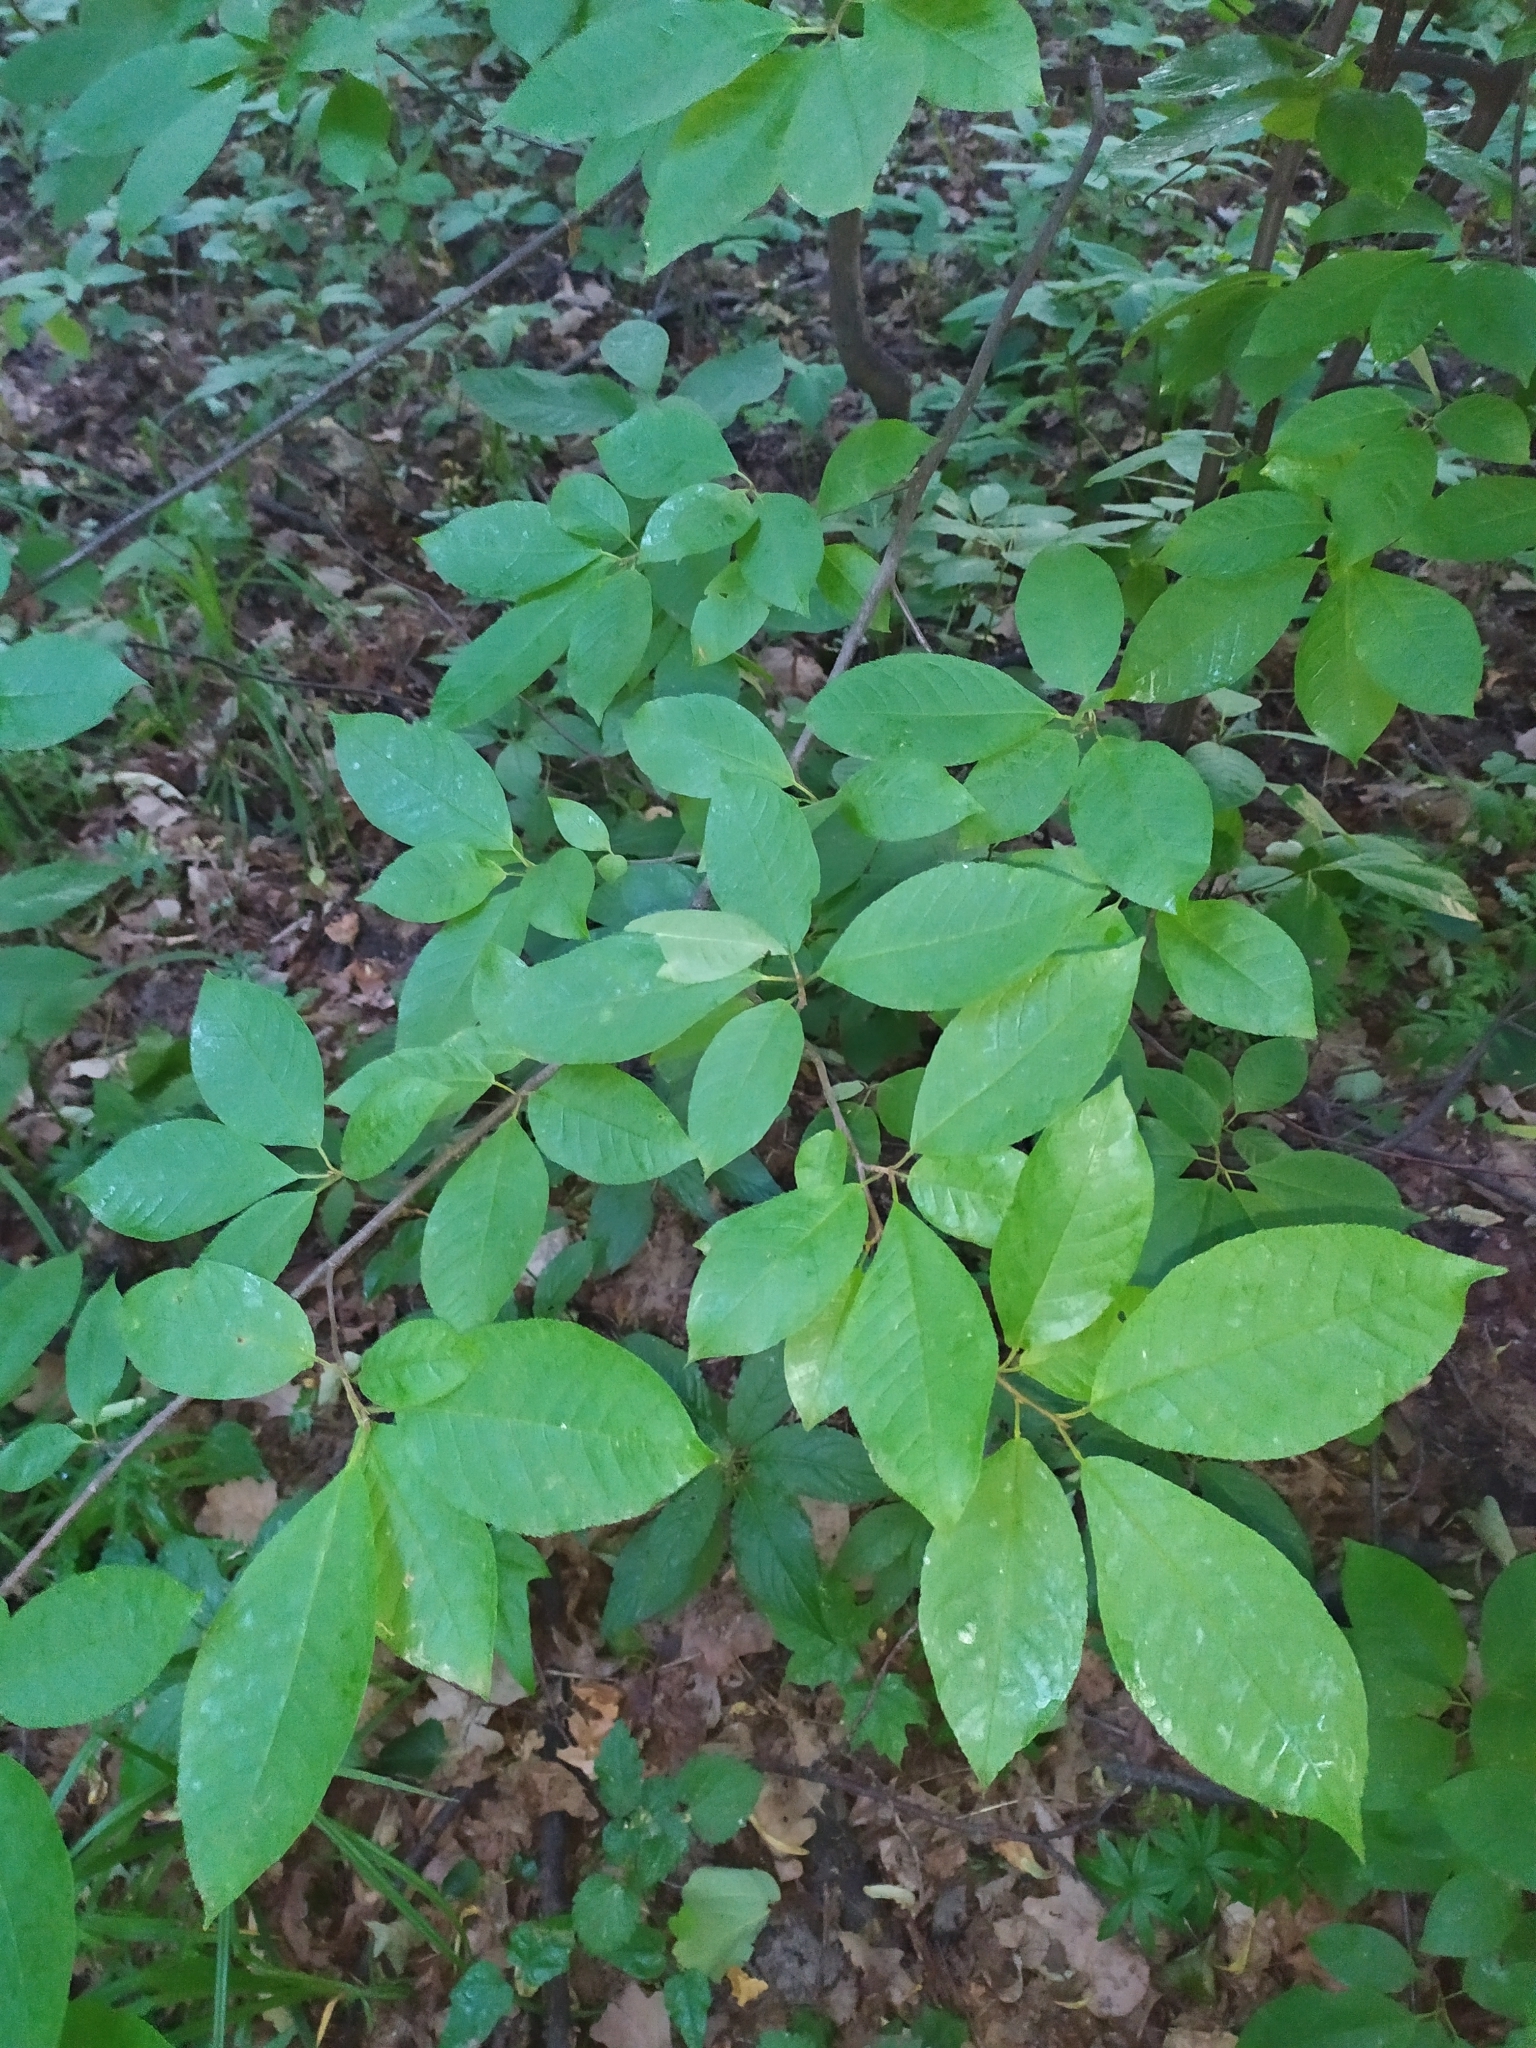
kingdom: Plantae
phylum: Tracheophyta
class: Magnoliopsida
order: Rosales
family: Rosaceae
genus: Prunus
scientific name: Prunus padus
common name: Bird cherry
